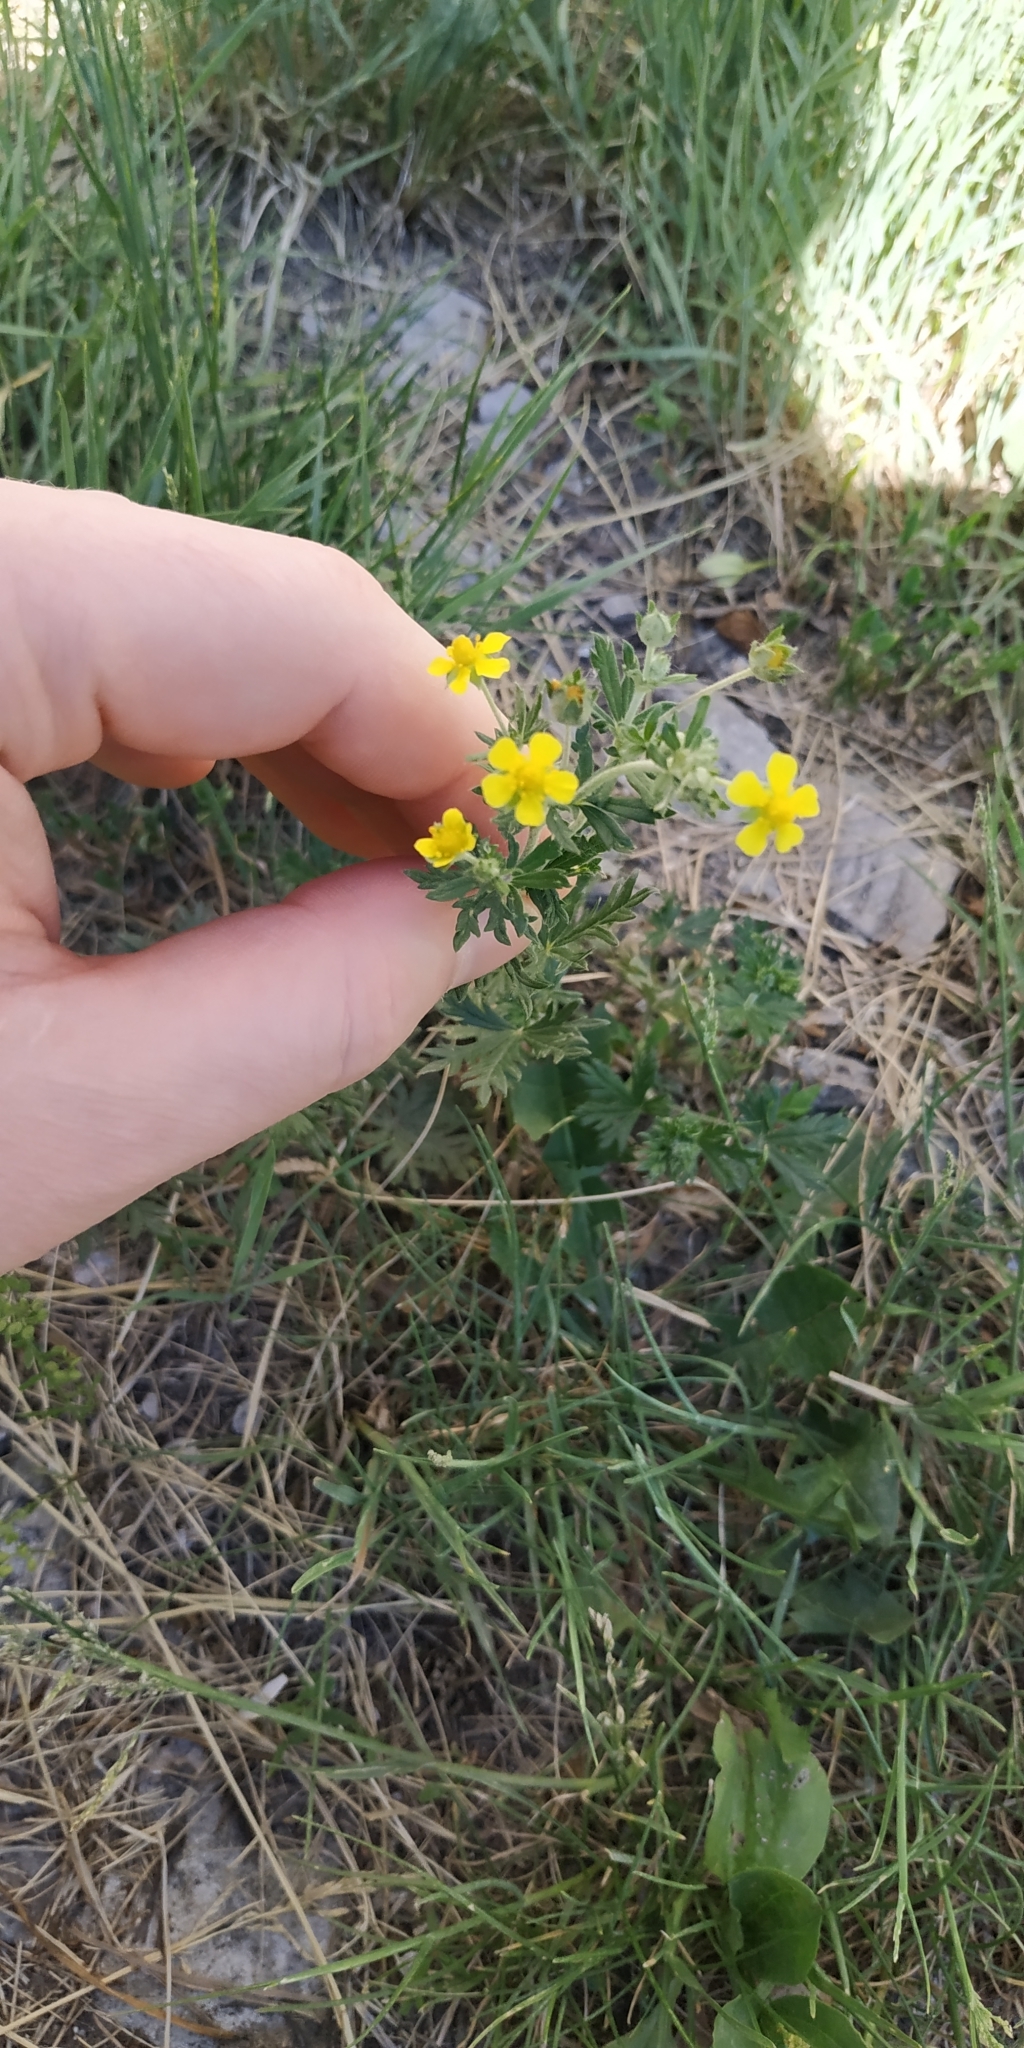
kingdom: Plantae
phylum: Tracheophyta
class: Magnoliopsida
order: Rosales
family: Rosaceae
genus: Potentilla
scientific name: Potentilla argentea
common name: Hoary cinquefoil
